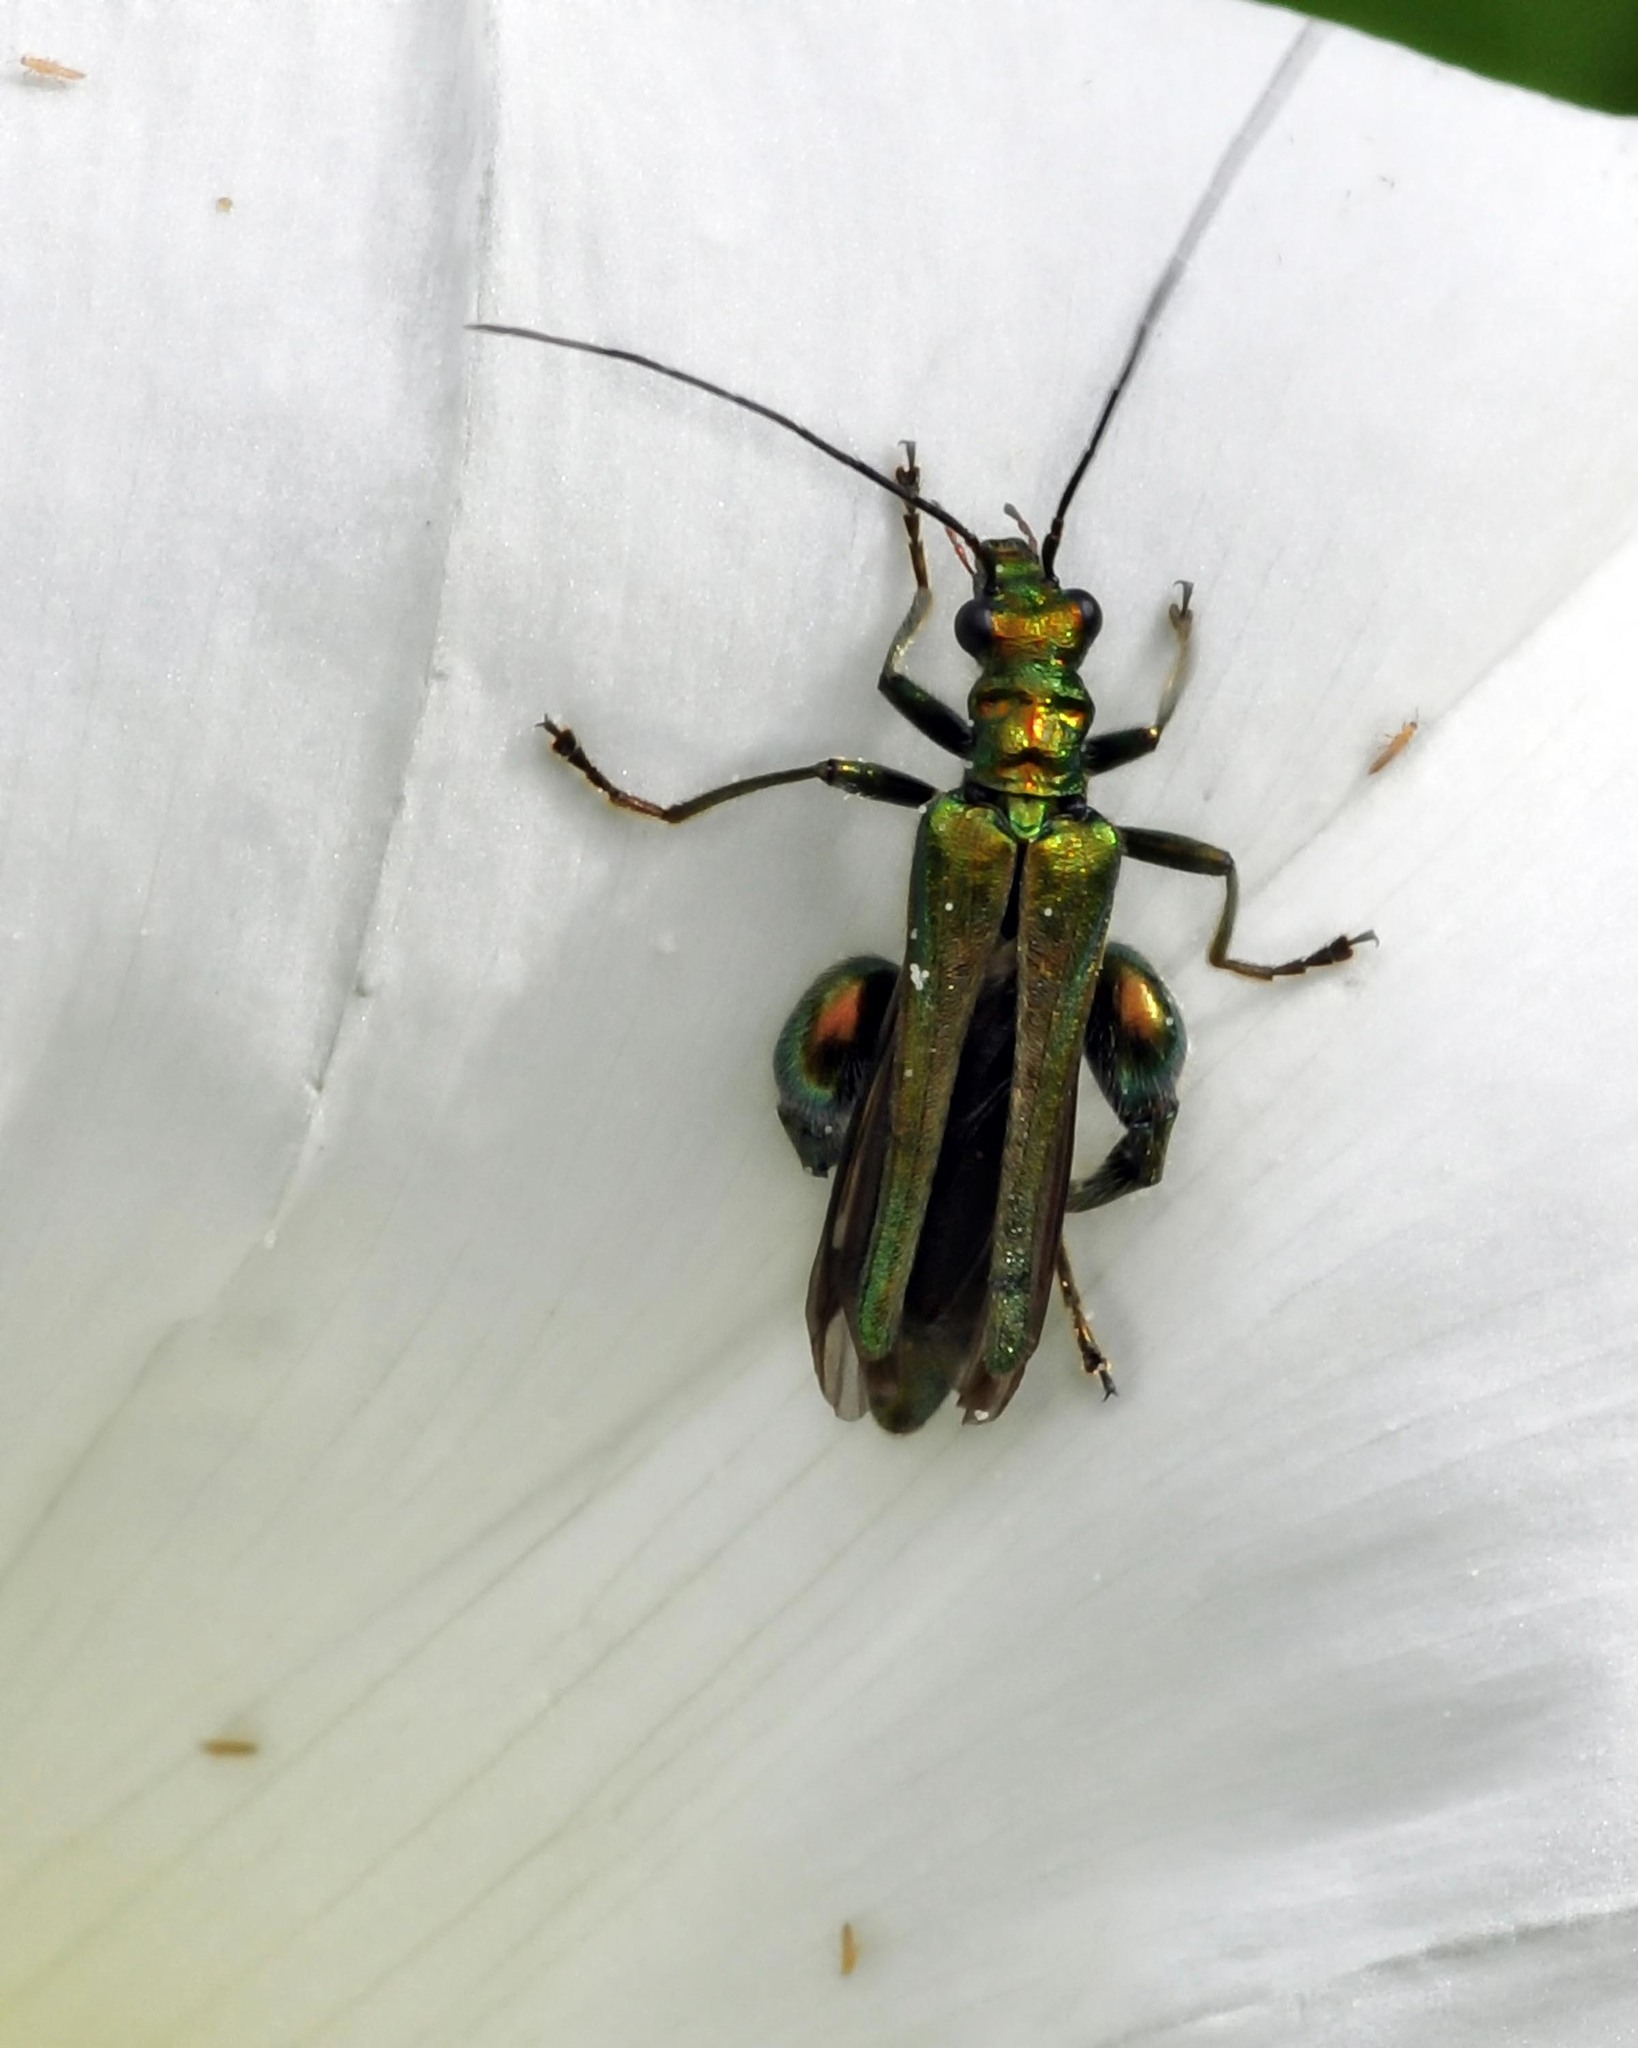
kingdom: Animalia
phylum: Arthropoda
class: Insecta
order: Coleoptera
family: Oedemeridae
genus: Oedemera
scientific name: Oedemera nobilis
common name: Swollen-thighed beetle
